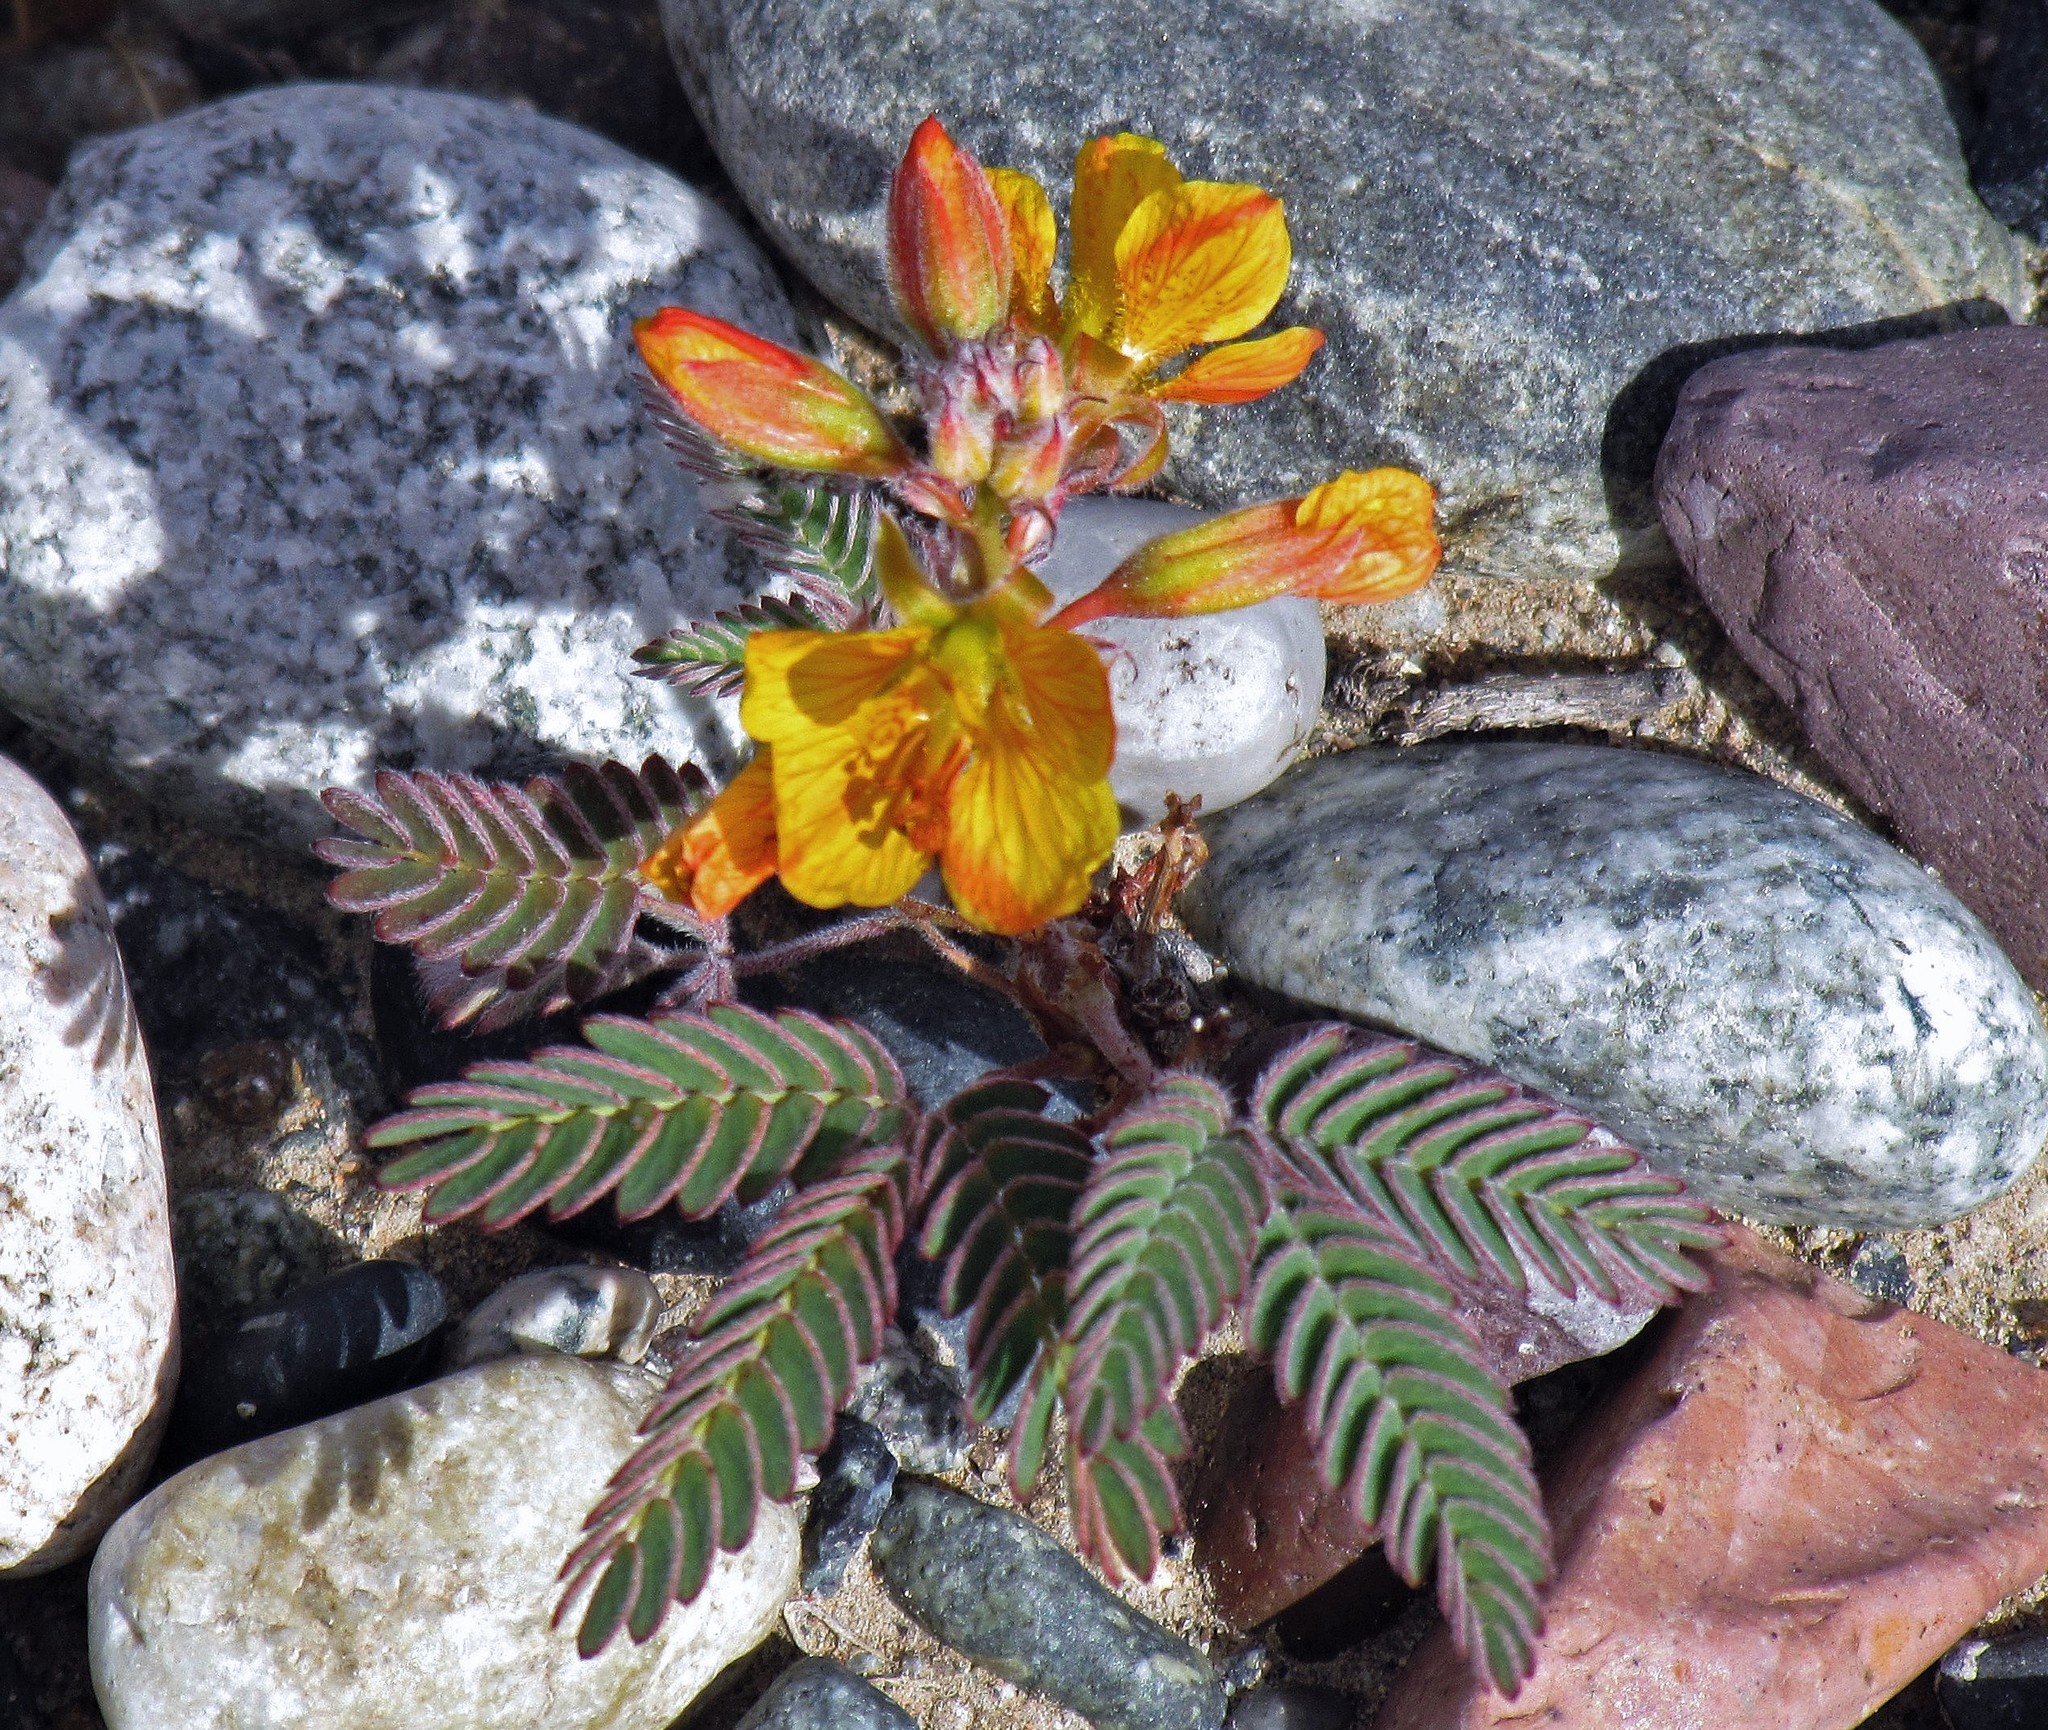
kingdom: Plantae
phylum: Tracheophyta
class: Magnoliopsida
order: Fabales
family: Fabaceae
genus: Hoffmannseggia
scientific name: Hoffmannseggia trifoliata
